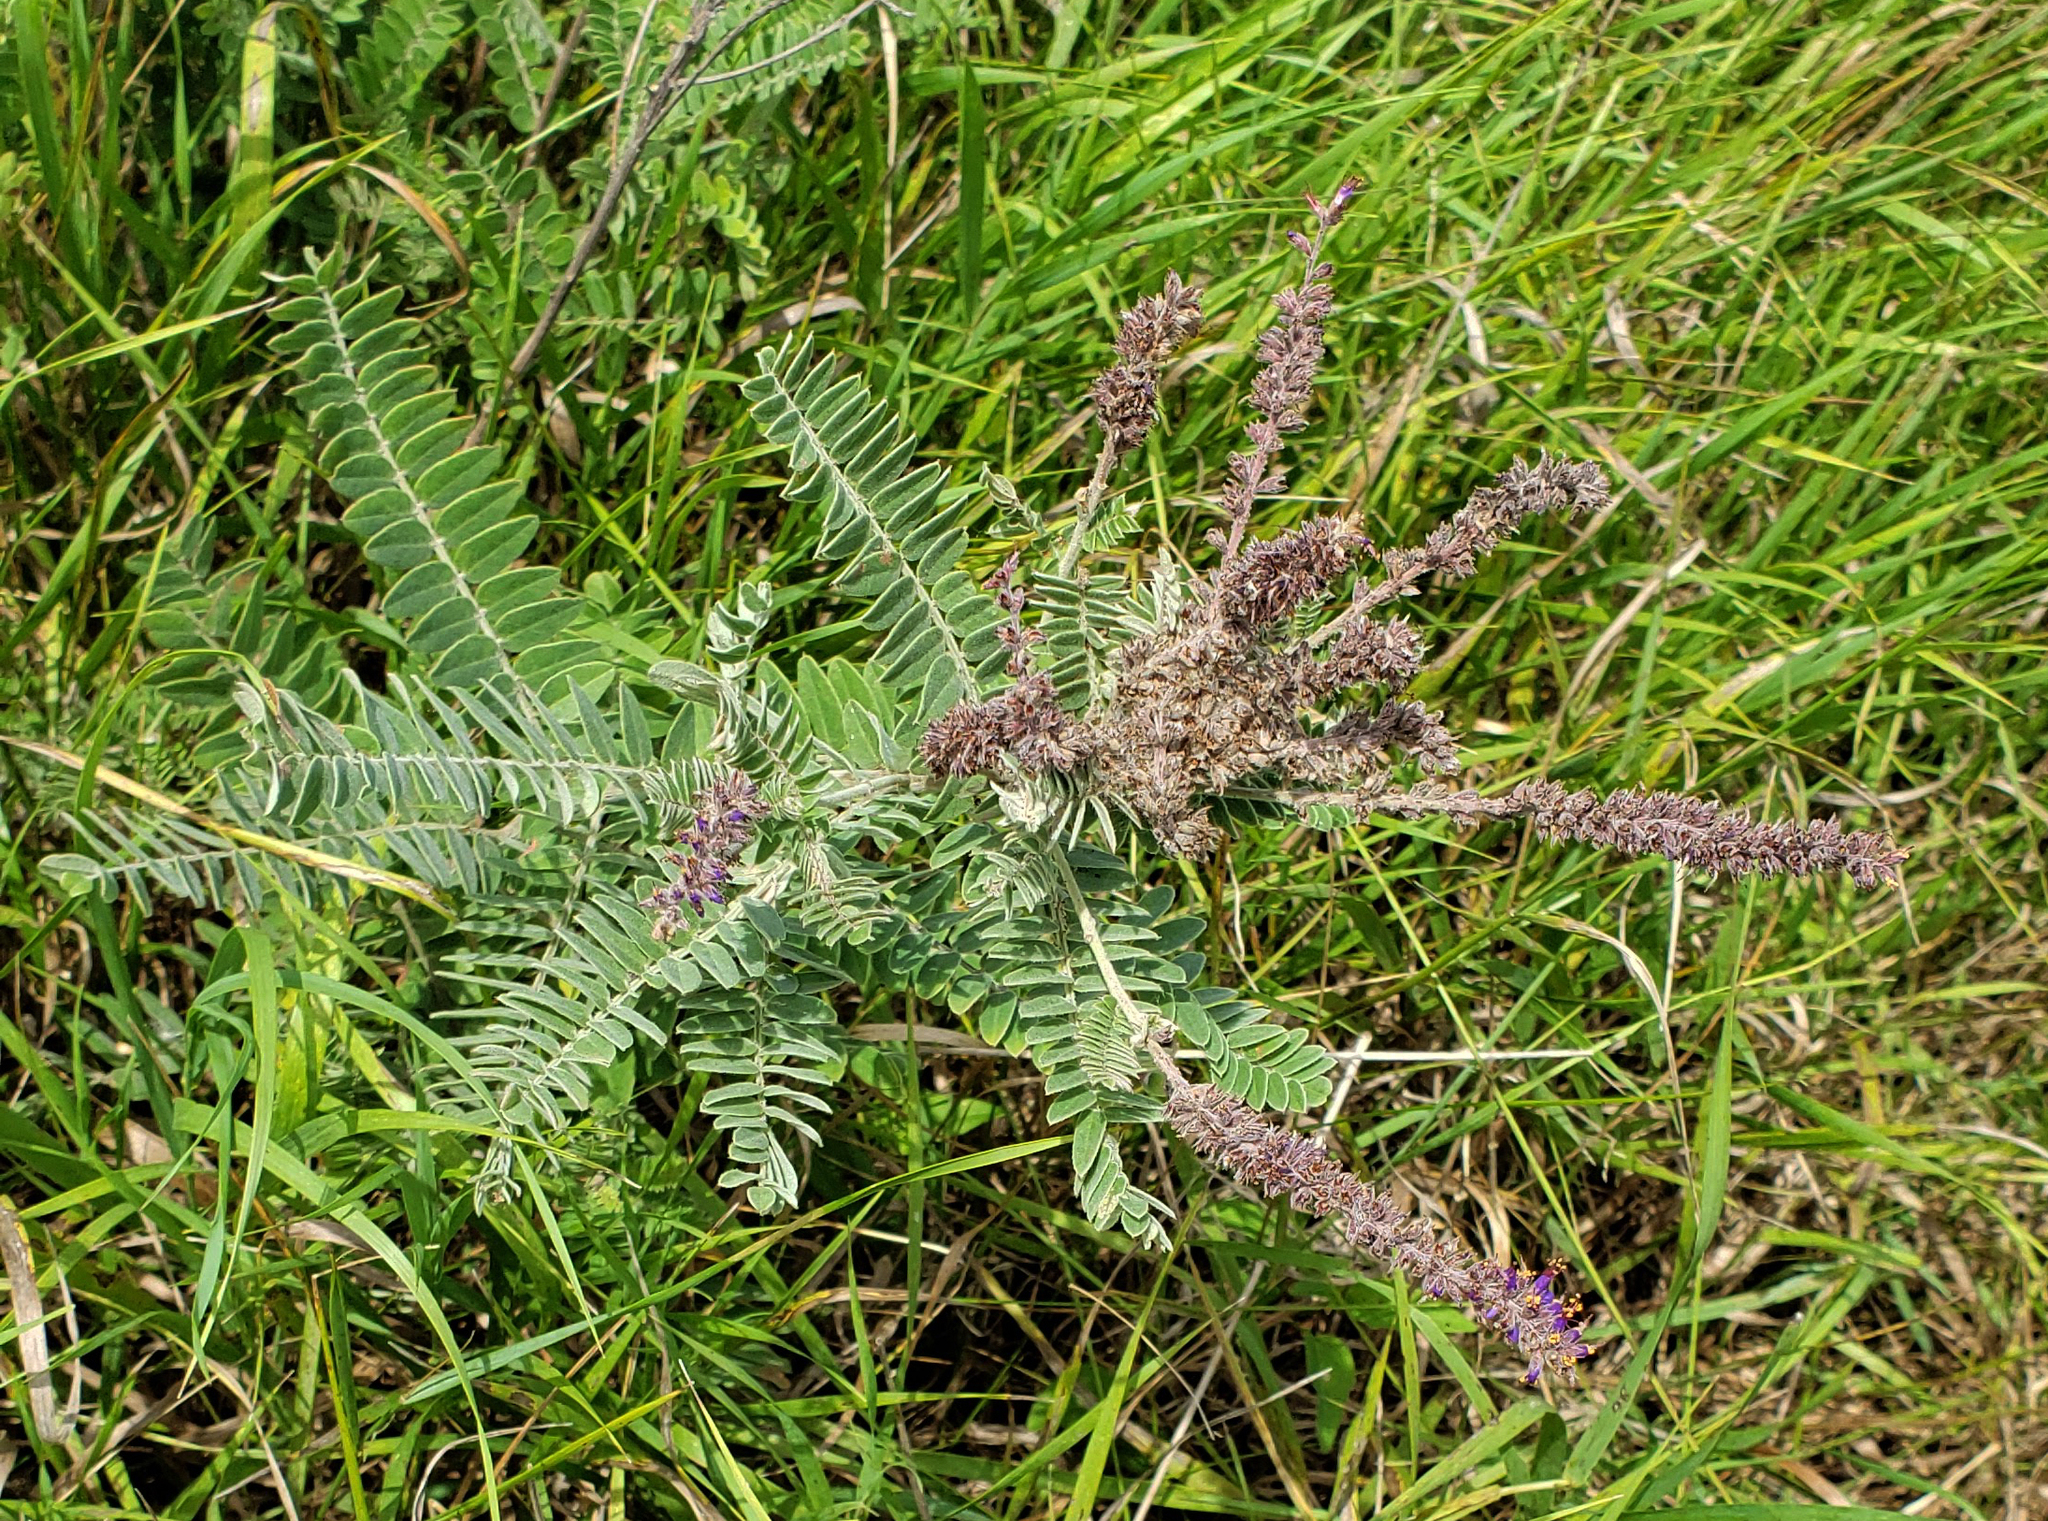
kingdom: Plantae
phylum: Tracheophyta
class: Magnoliopsida
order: Fabales
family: Fabaceae
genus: Amorpha
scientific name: Amorpha canescens
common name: Leadplant
